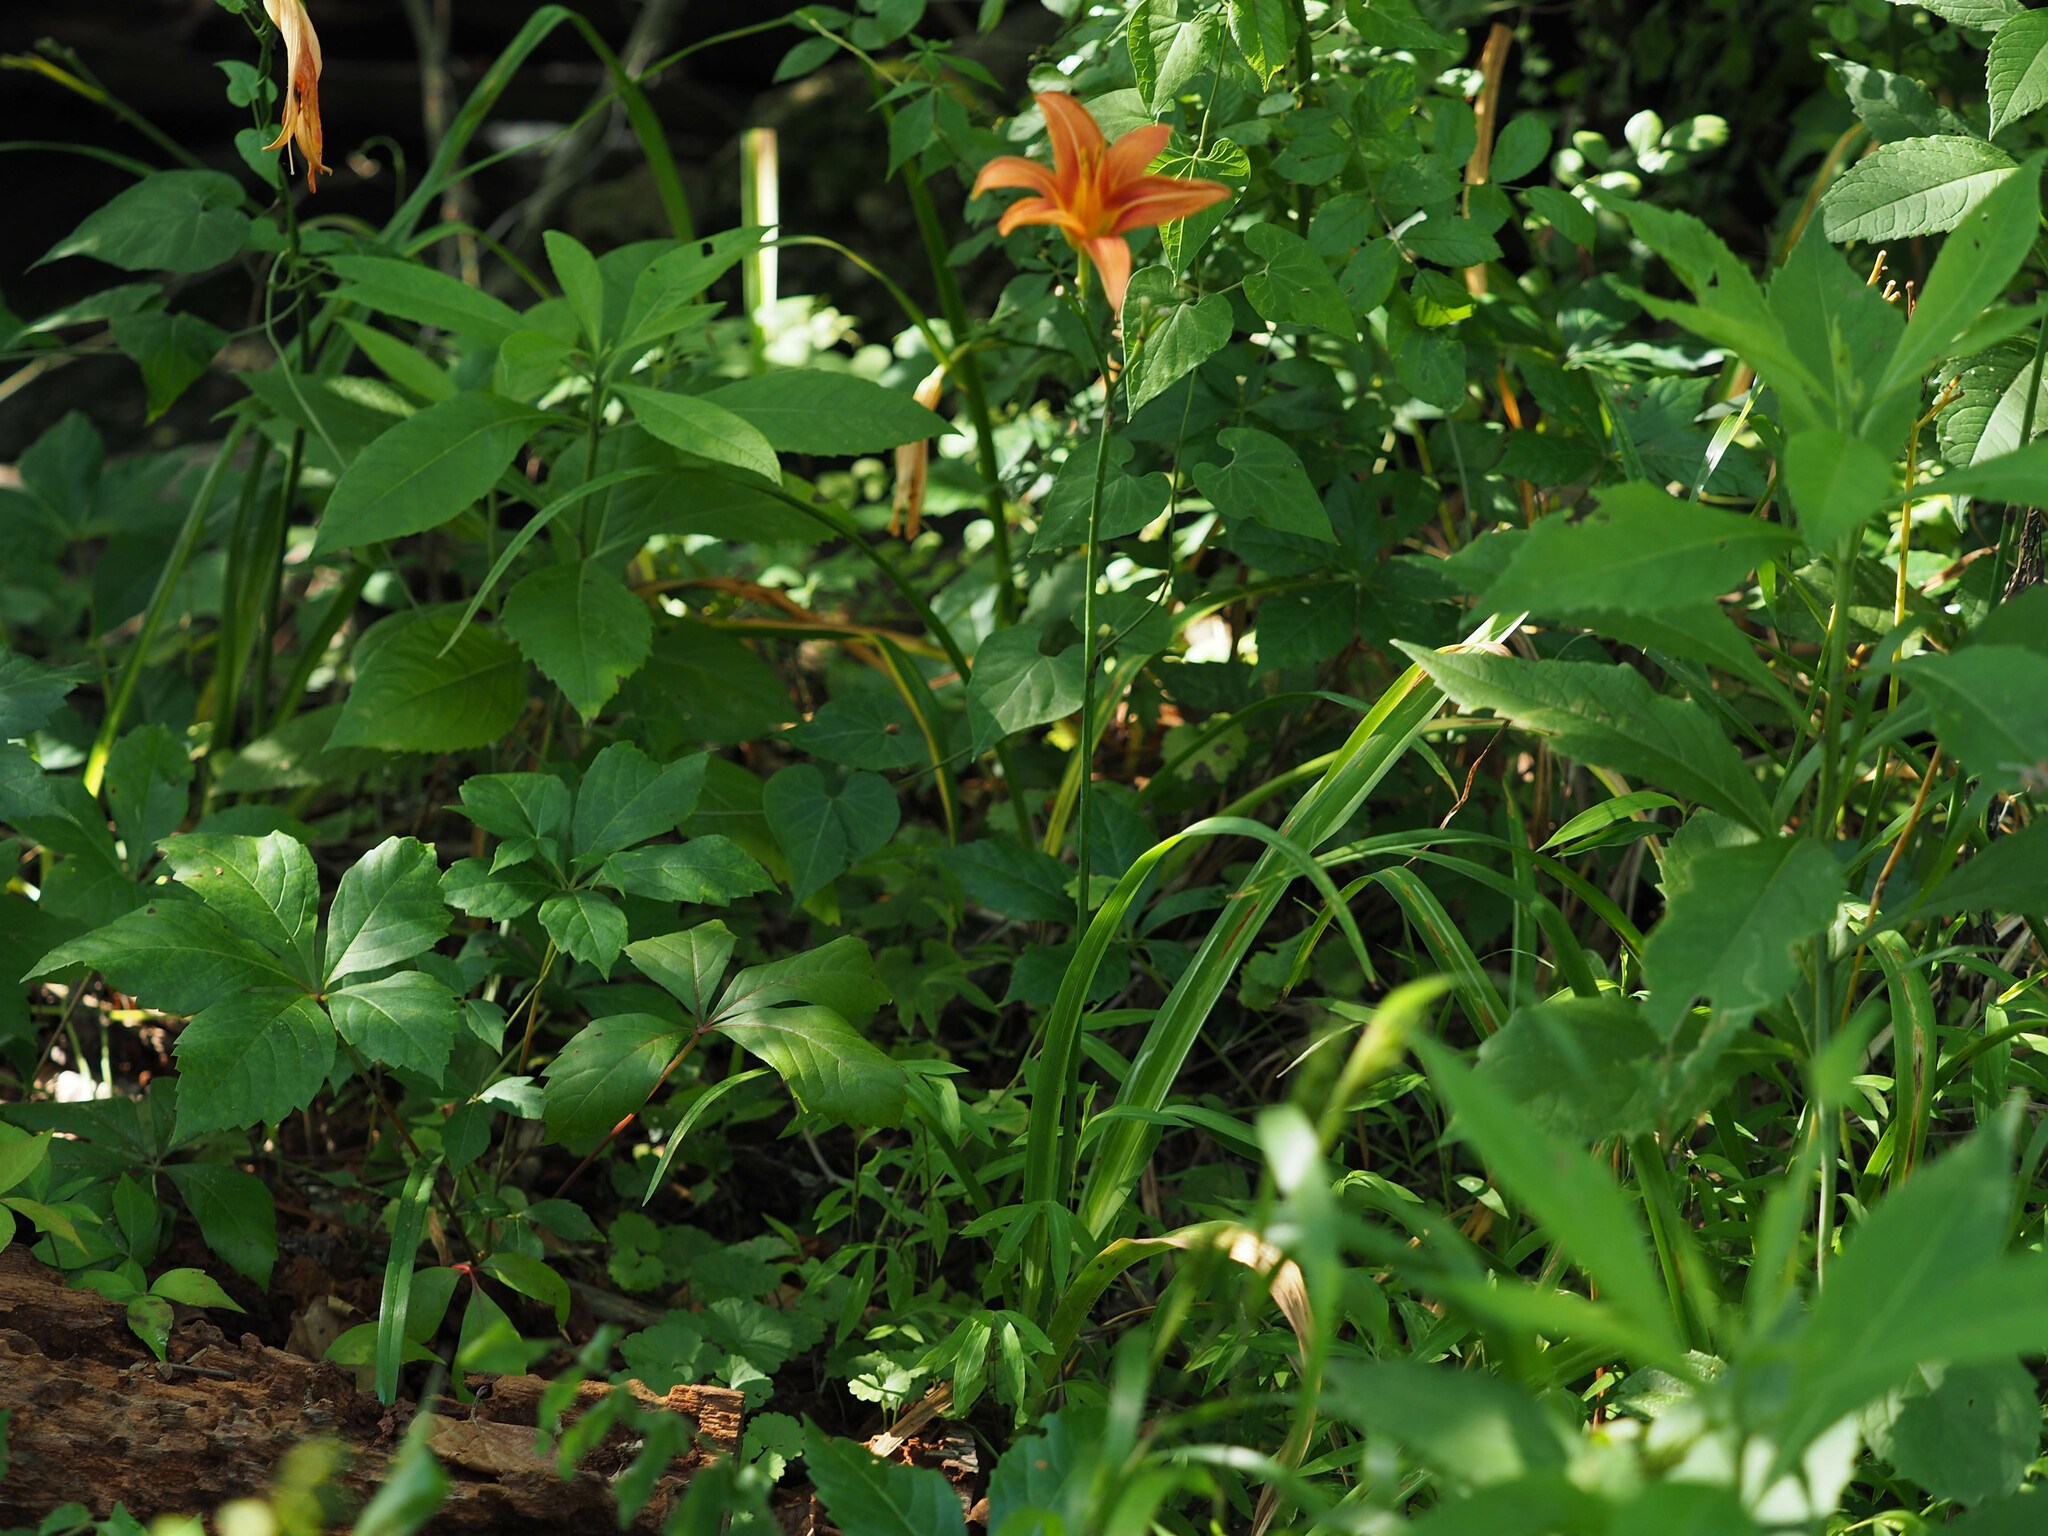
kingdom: Plantae
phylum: Tracheophyta
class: Liliopsida
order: Asparagales
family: Asphodelaceae
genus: Hemerocallis
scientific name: Hemerocallis fulva
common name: Orange day-lily
